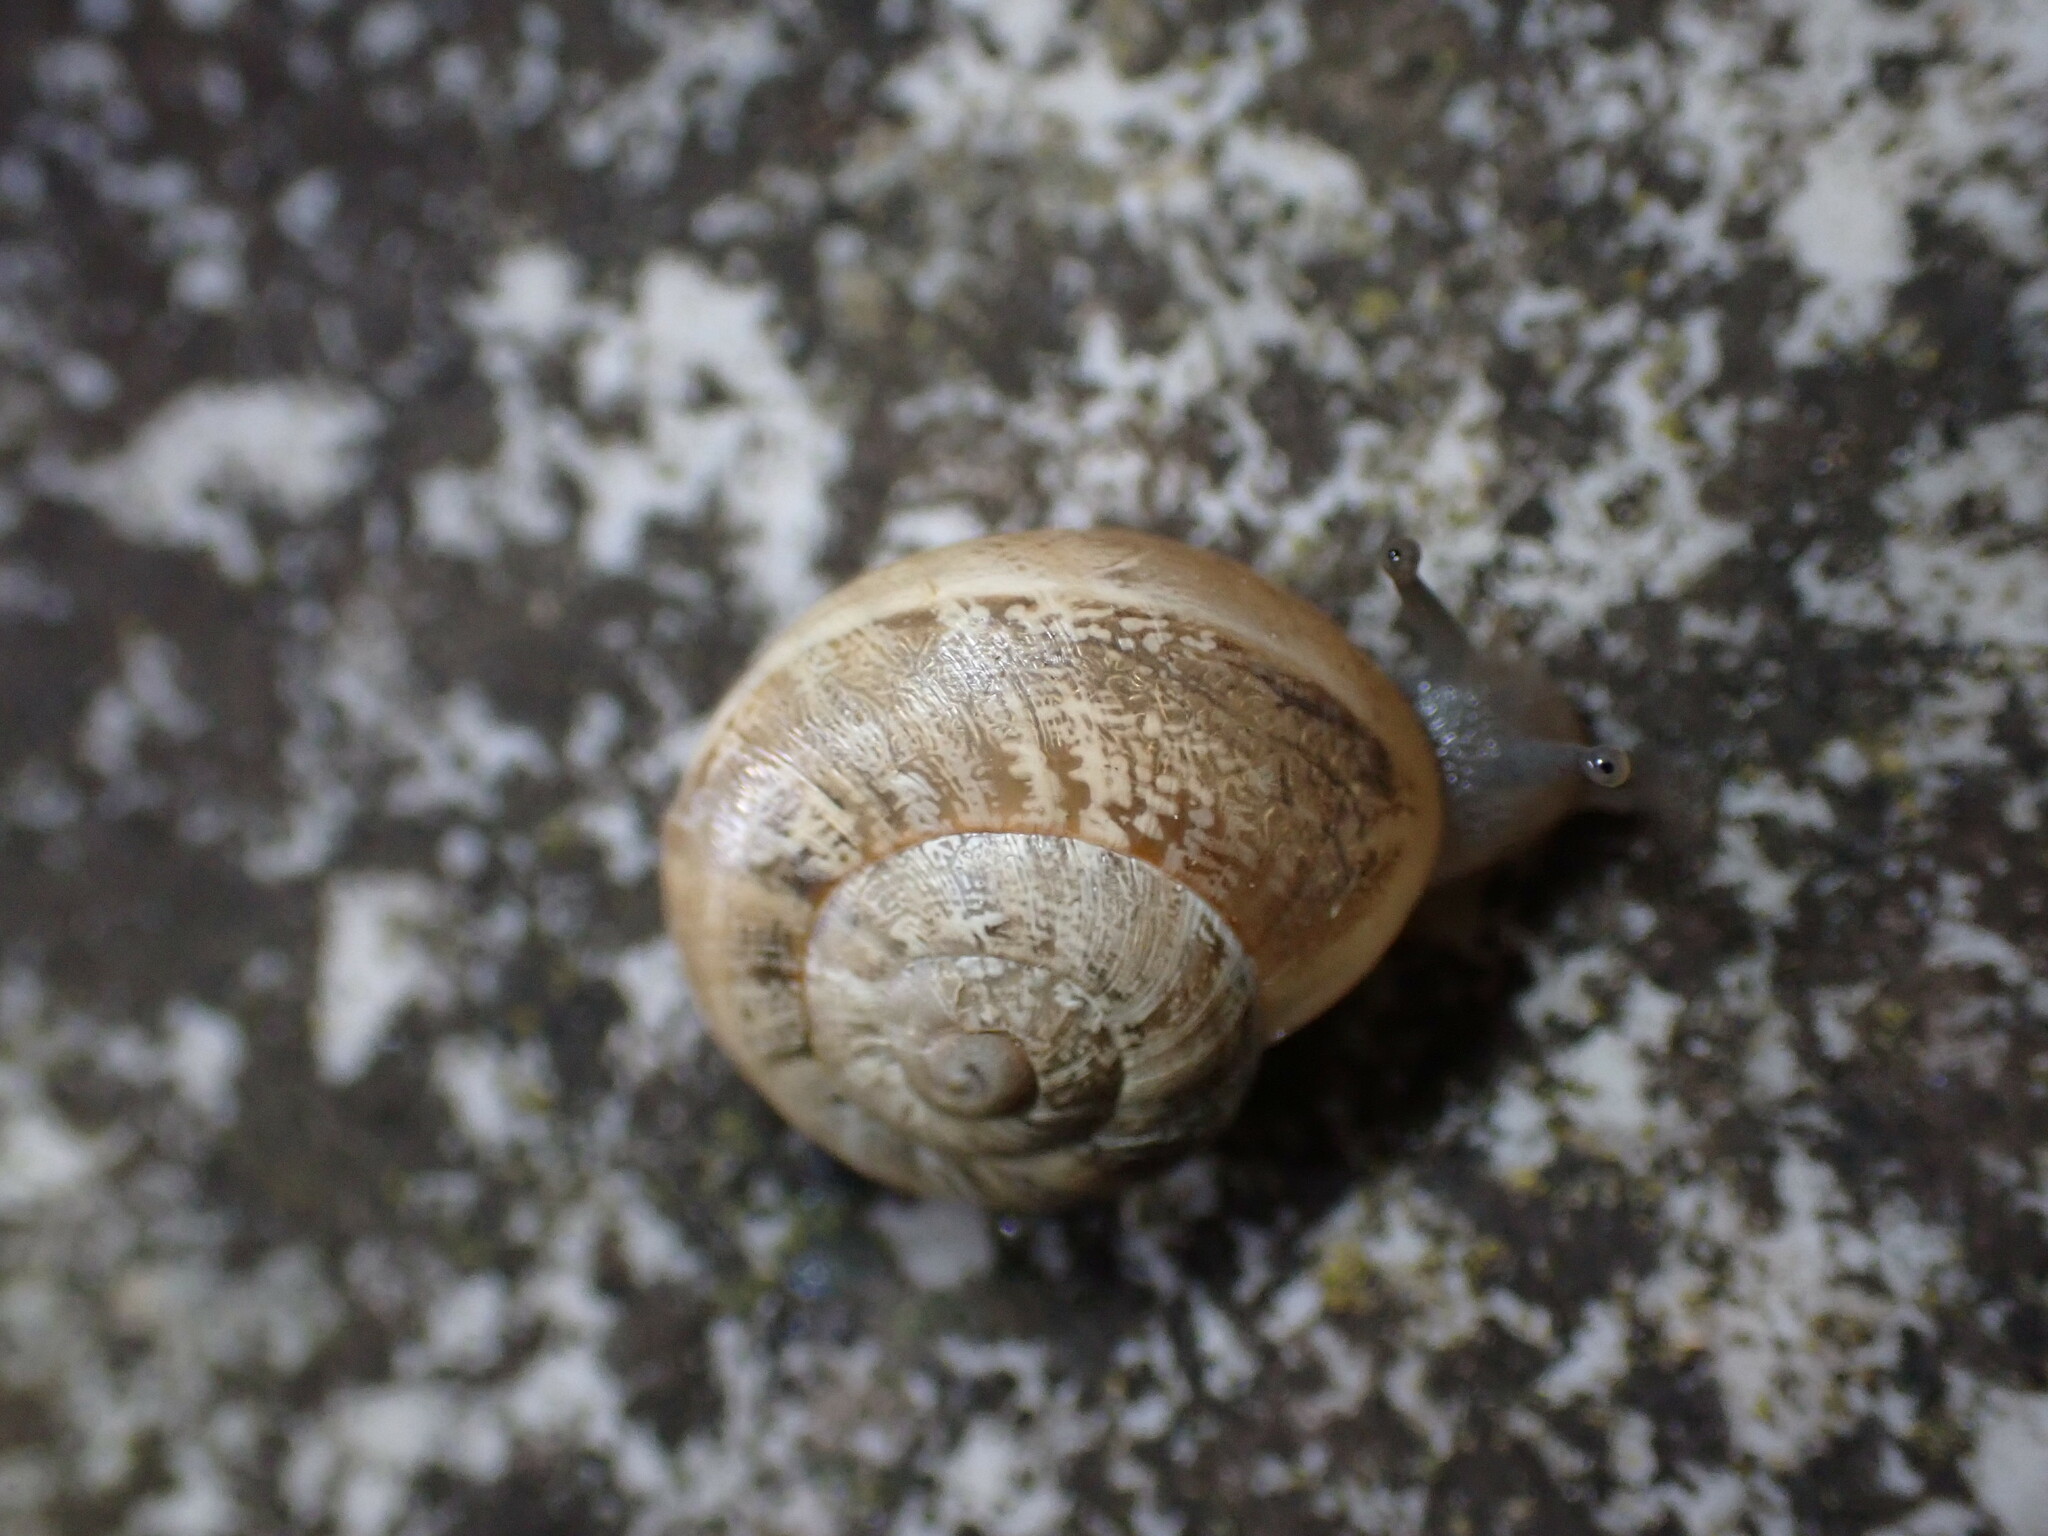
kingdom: Animalia
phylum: Mollusca
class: Gastropoda
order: Stylommatophora
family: Helicidae
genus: Eobania
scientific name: Eobania vermiculata
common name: Chocolateband snail
